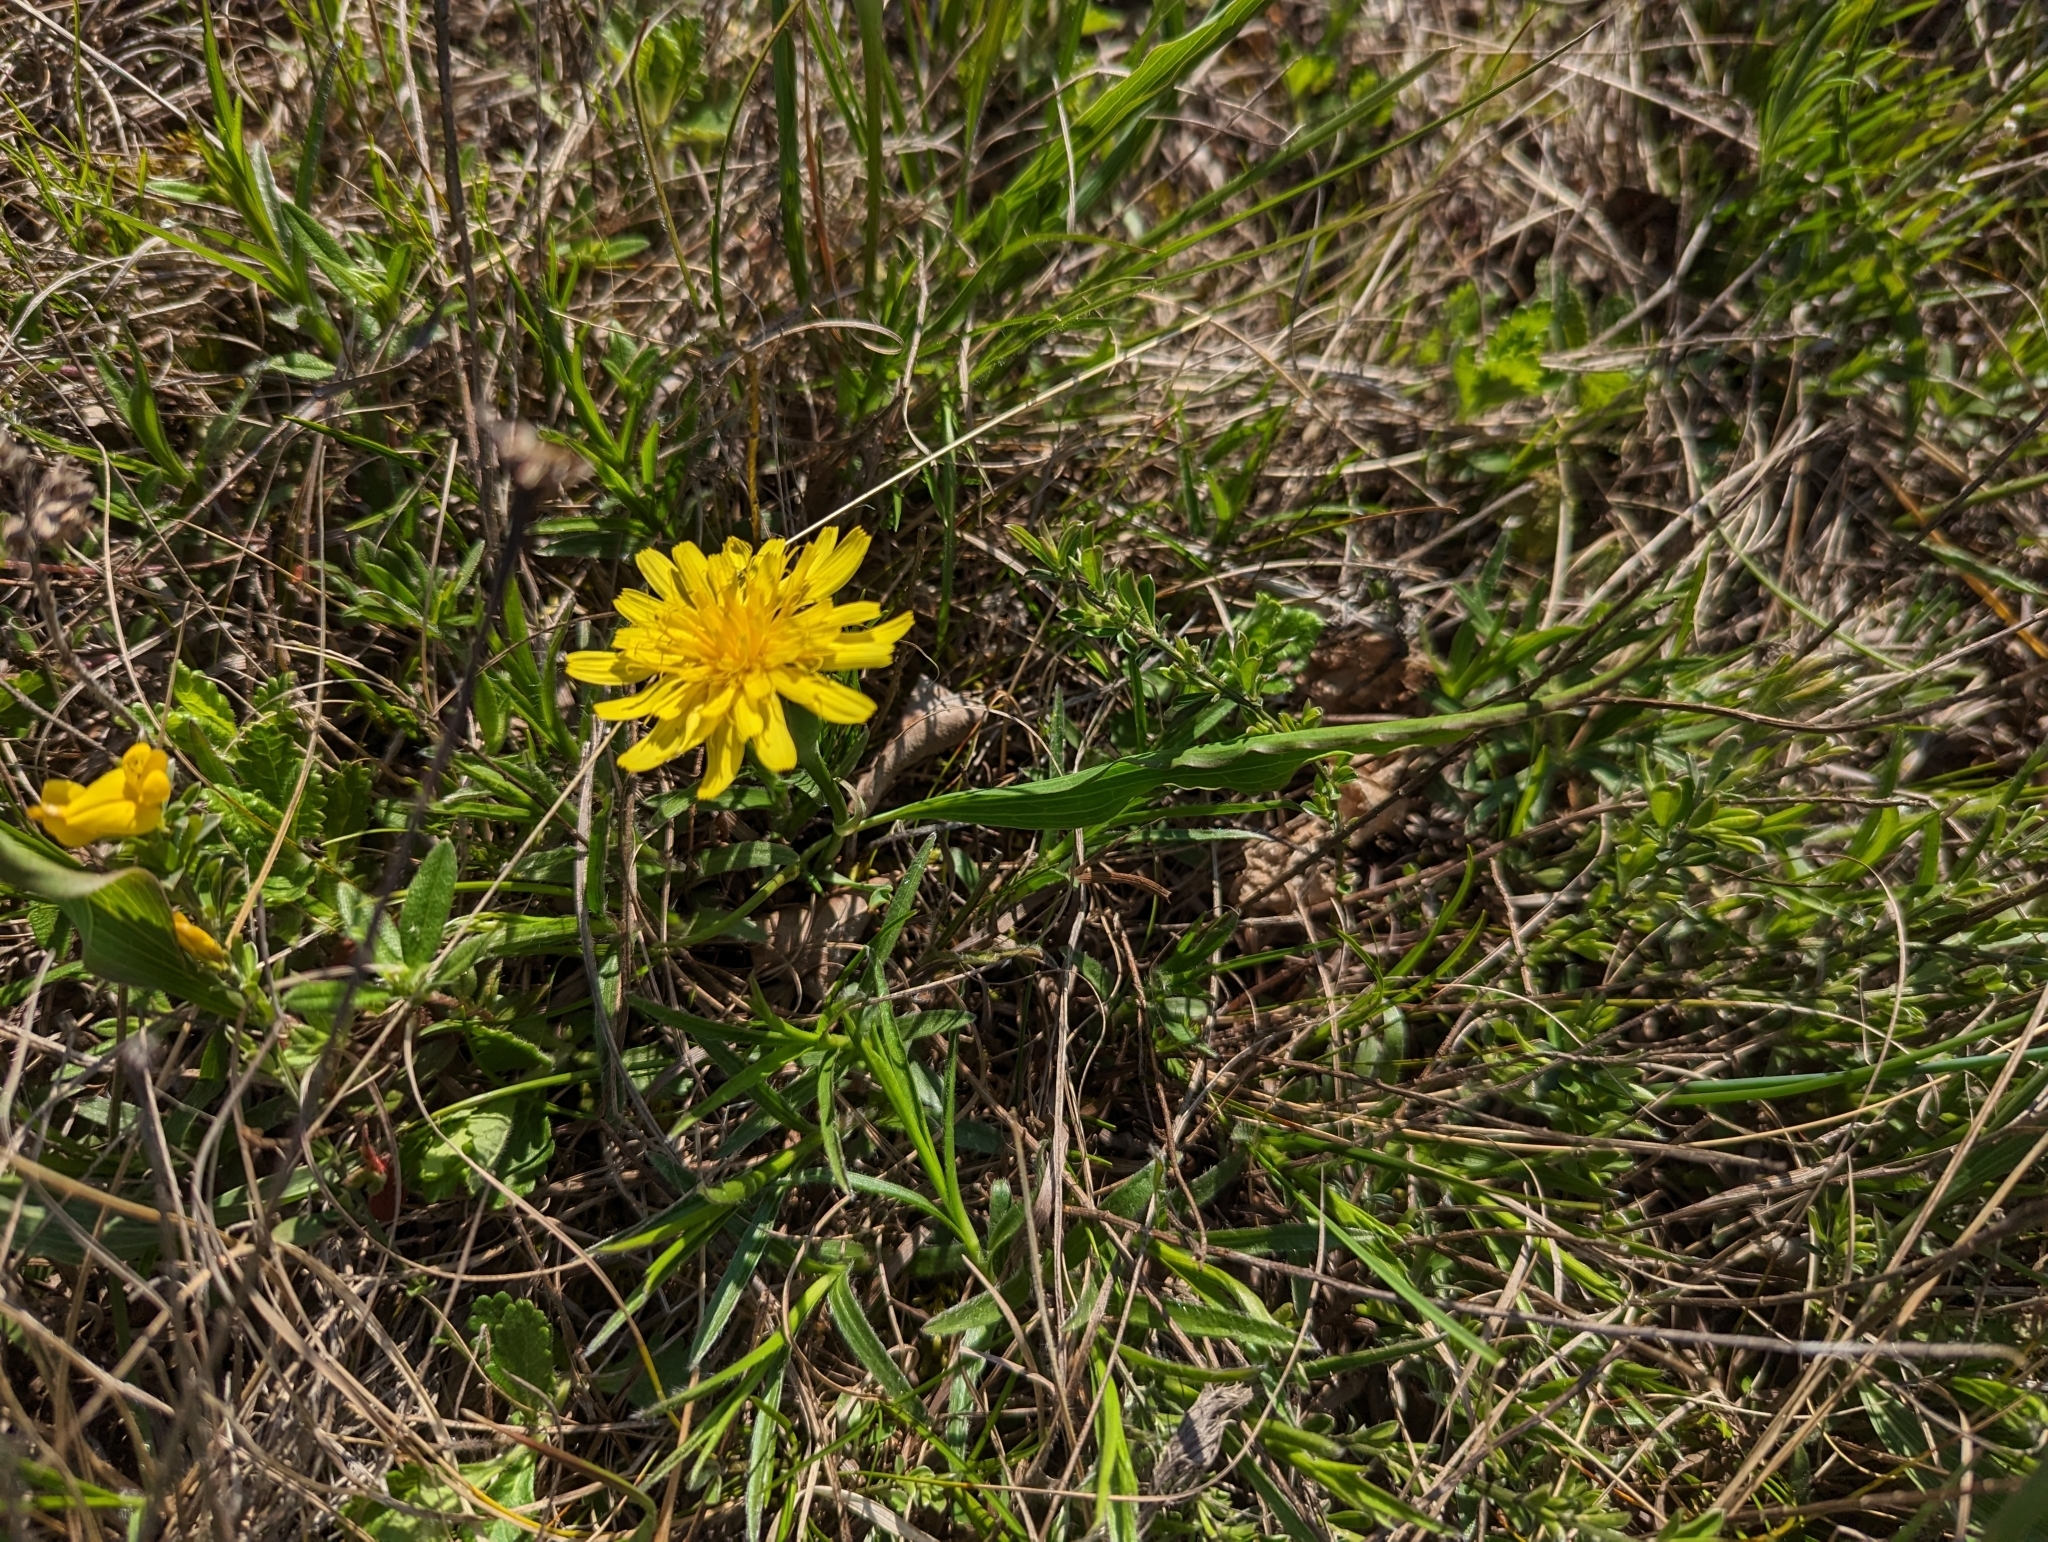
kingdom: Plantae
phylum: Tracheophyta
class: Magnoliopsida
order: Asterales
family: Asteraceae
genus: Takhtajaniantha
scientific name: Takhtajaniantha austriaca
